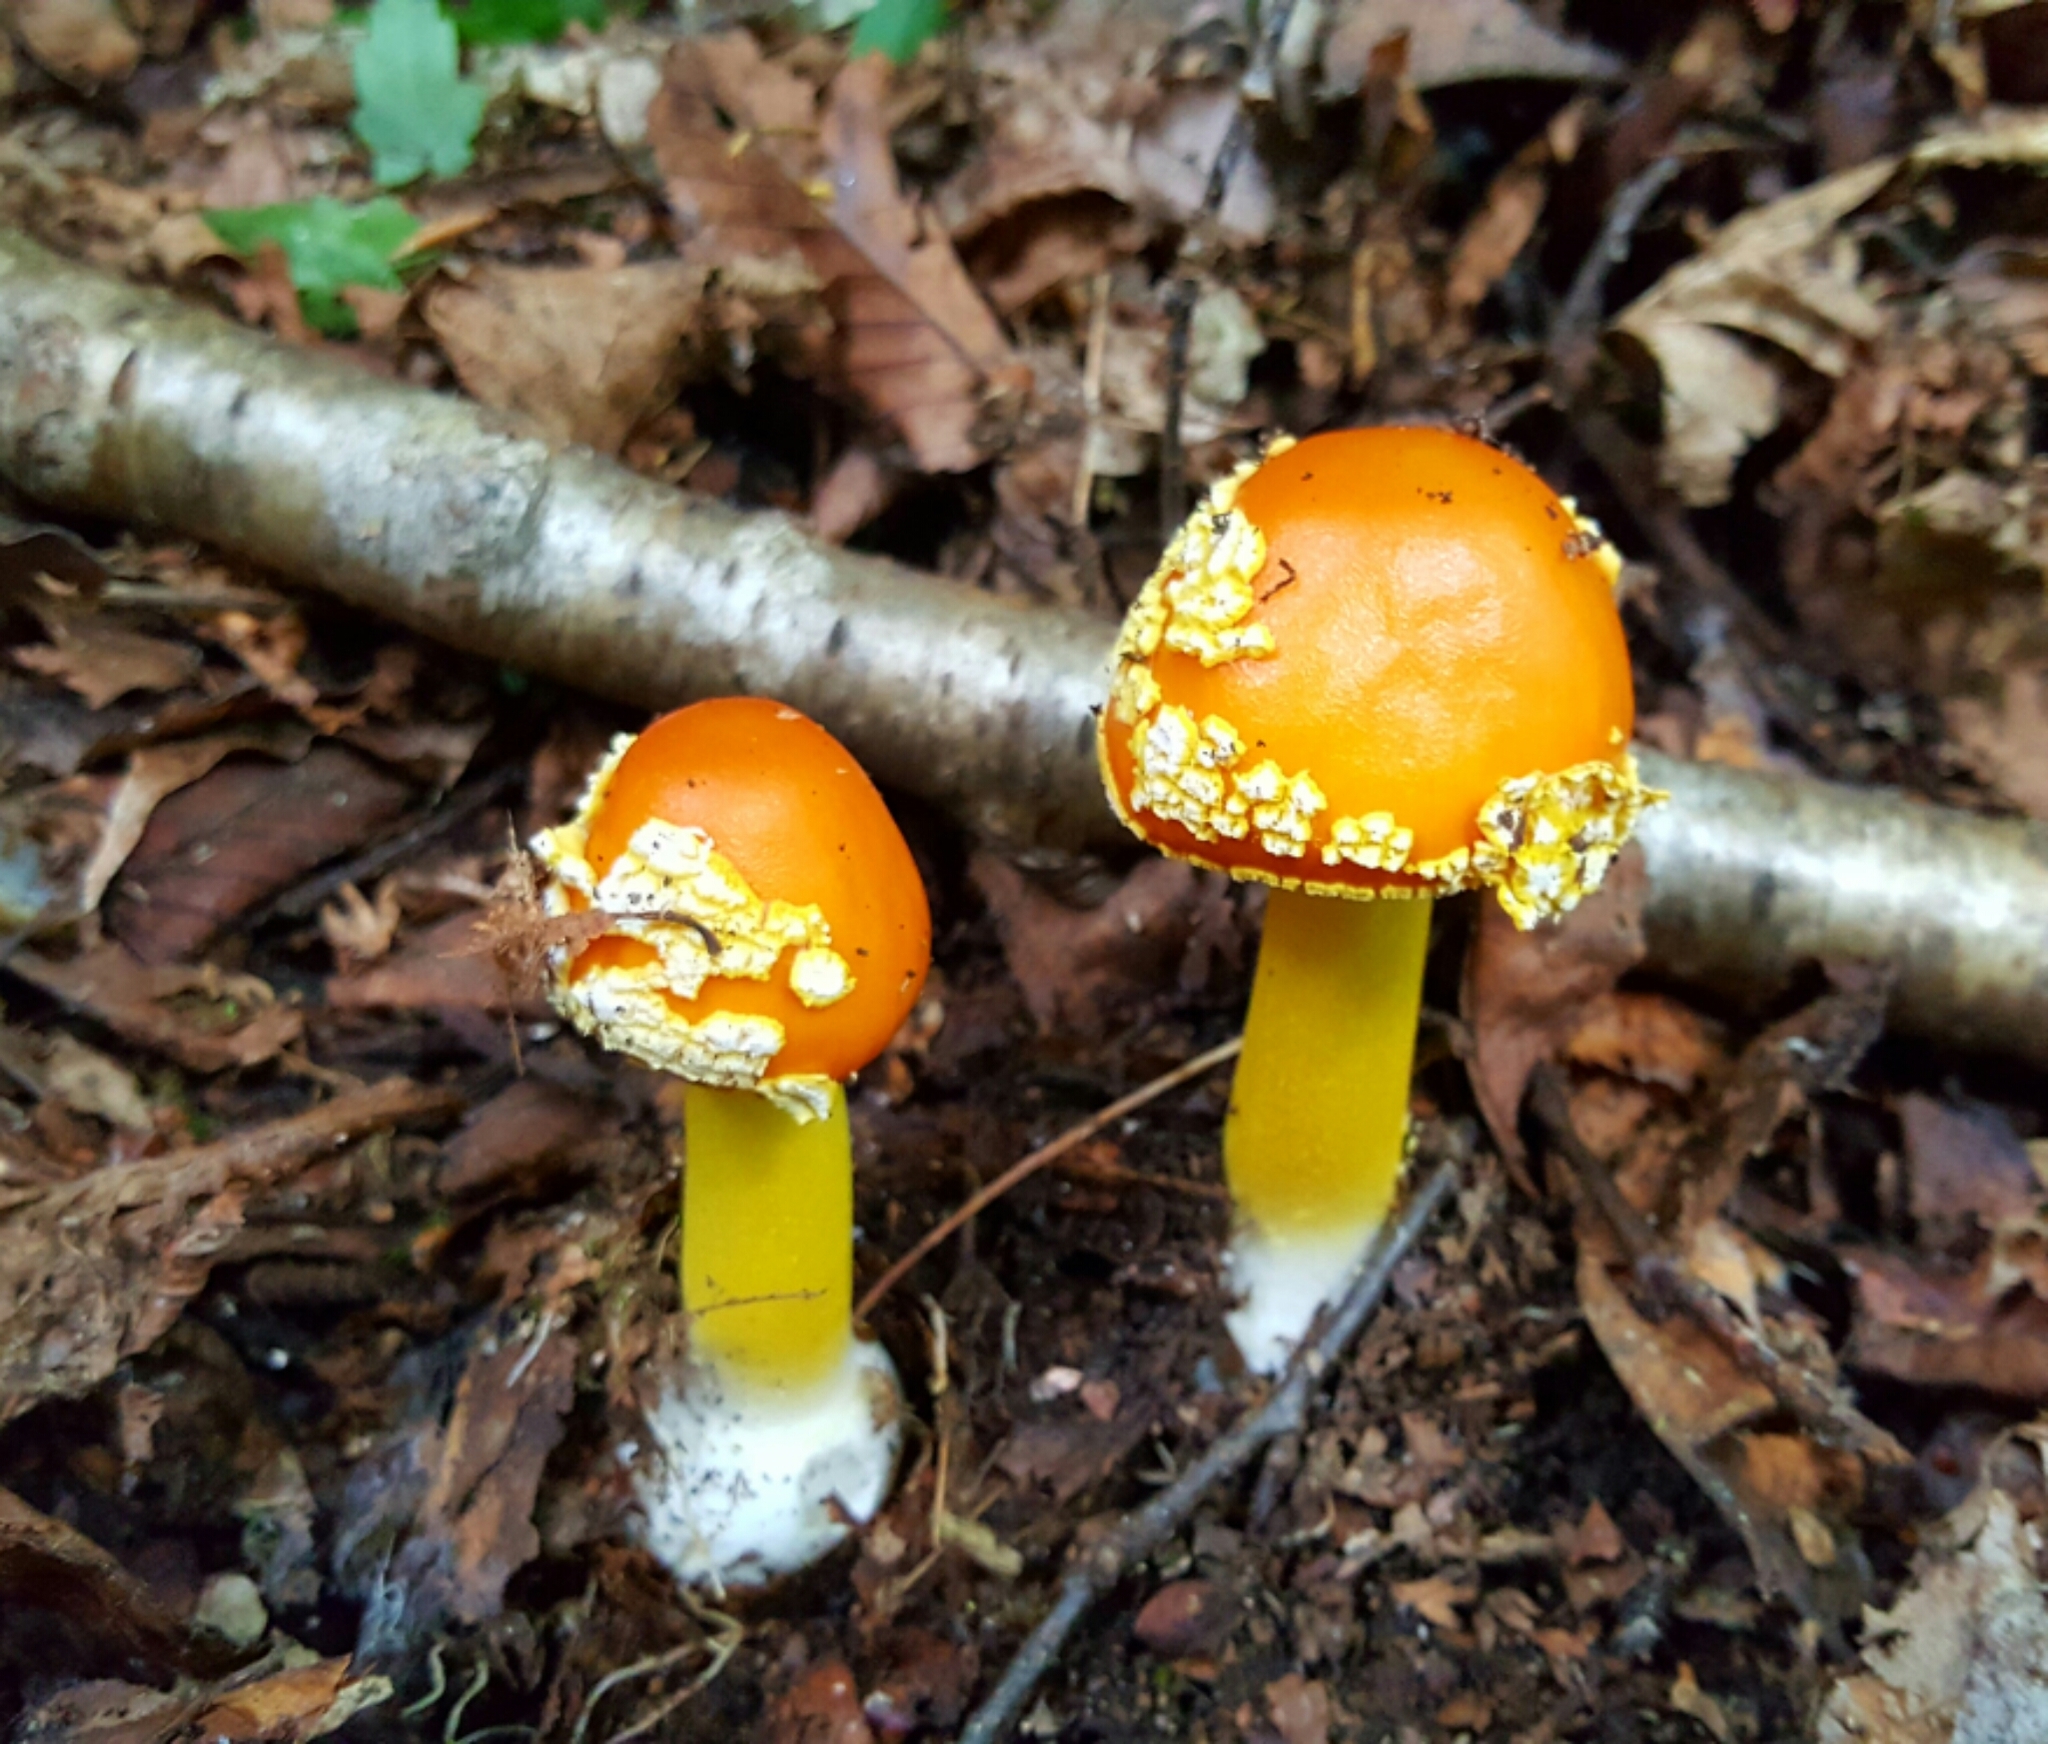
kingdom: Fungi
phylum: Basidiomycota
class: Agaricomycetes
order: Agaricales
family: Amanitaceae
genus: Amanita
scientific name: Amanita flavoconia
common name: Yellow patches
